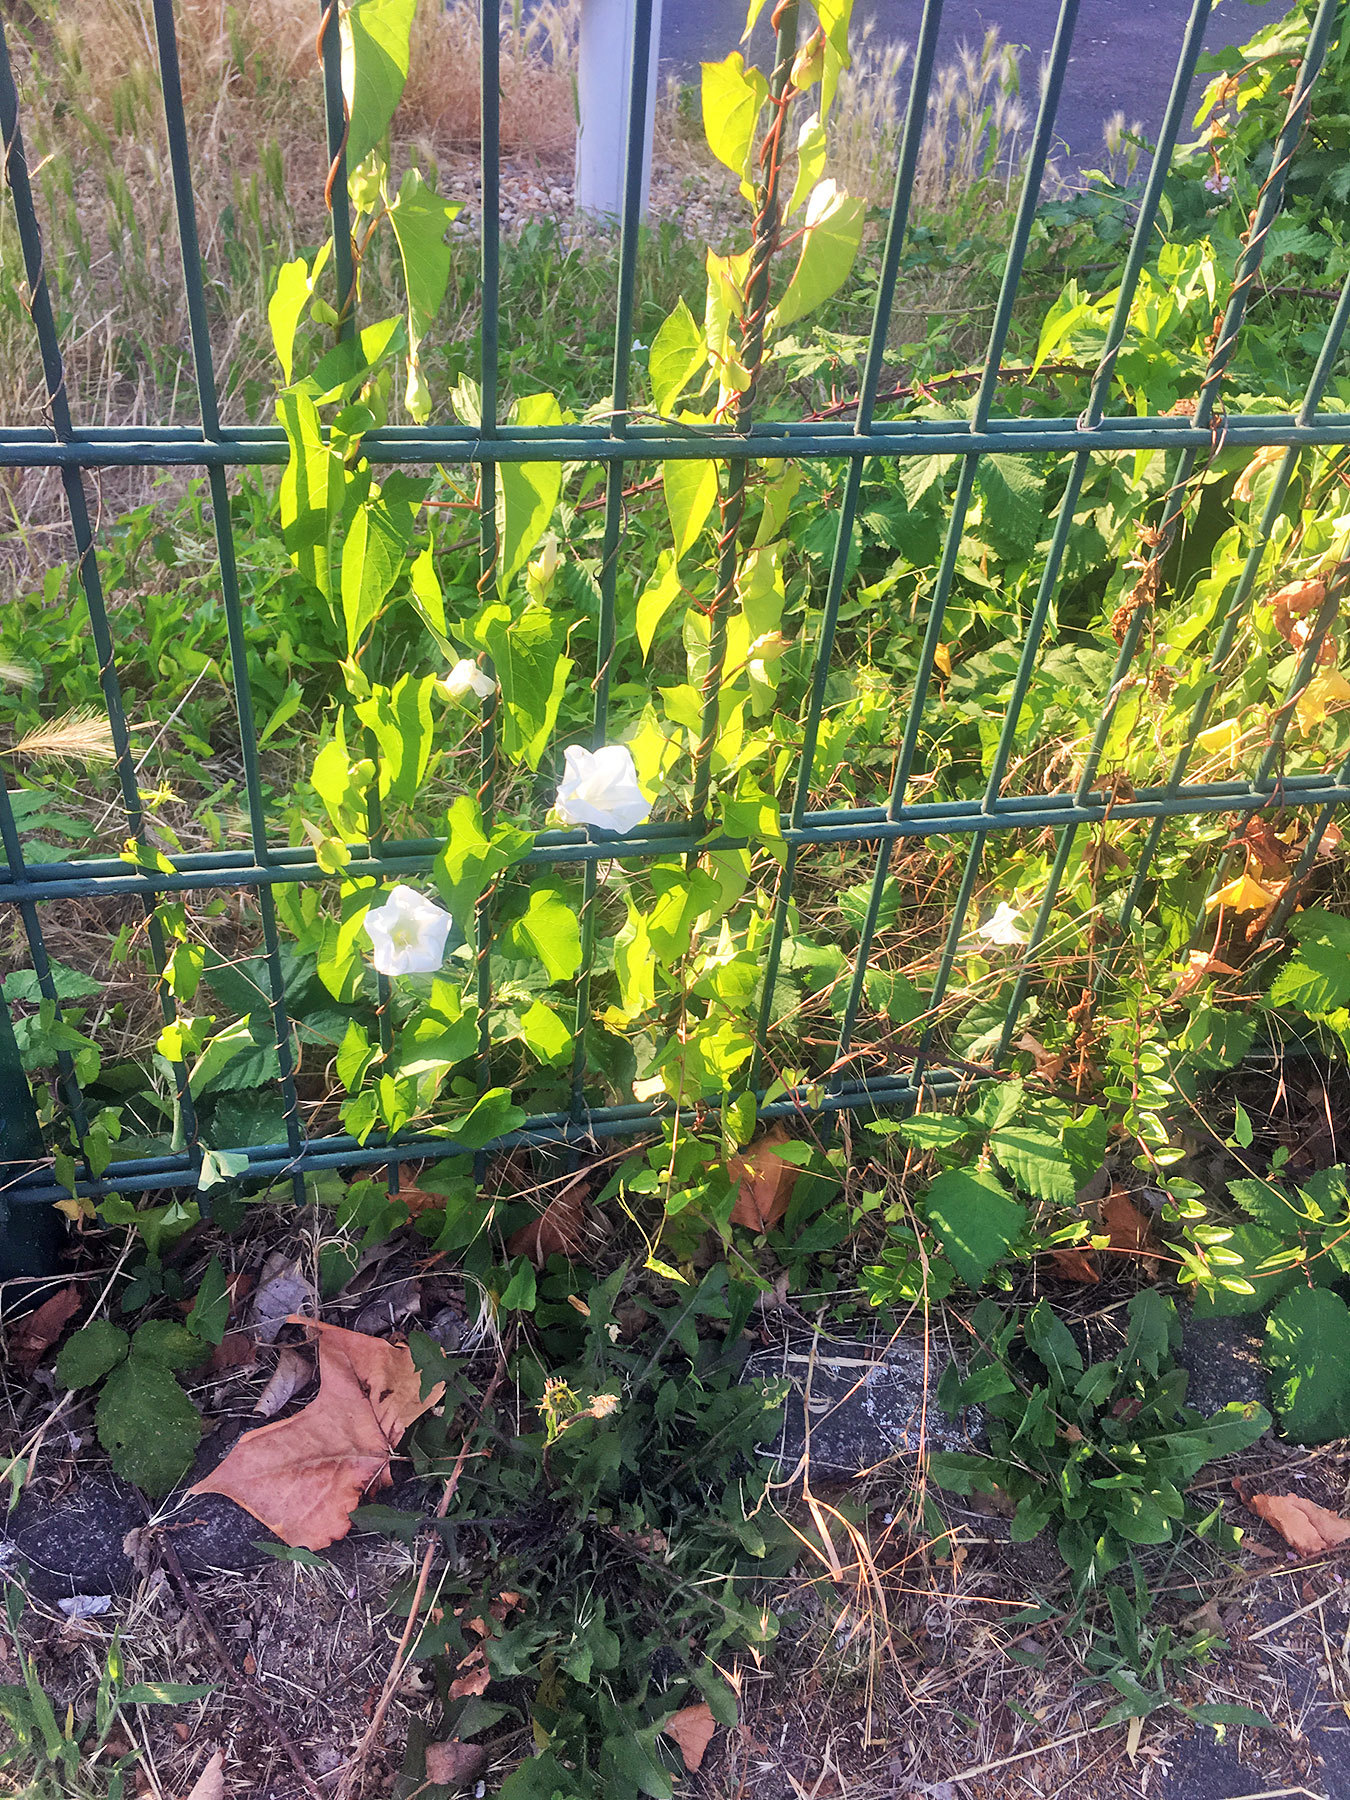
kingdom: Plantae
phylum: Tracheophyta
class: Magnoliopsida
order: Solanales
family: Convolvulaceae
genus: Calystegia
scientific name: Calystegia sepium
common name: Hedge bindweed
